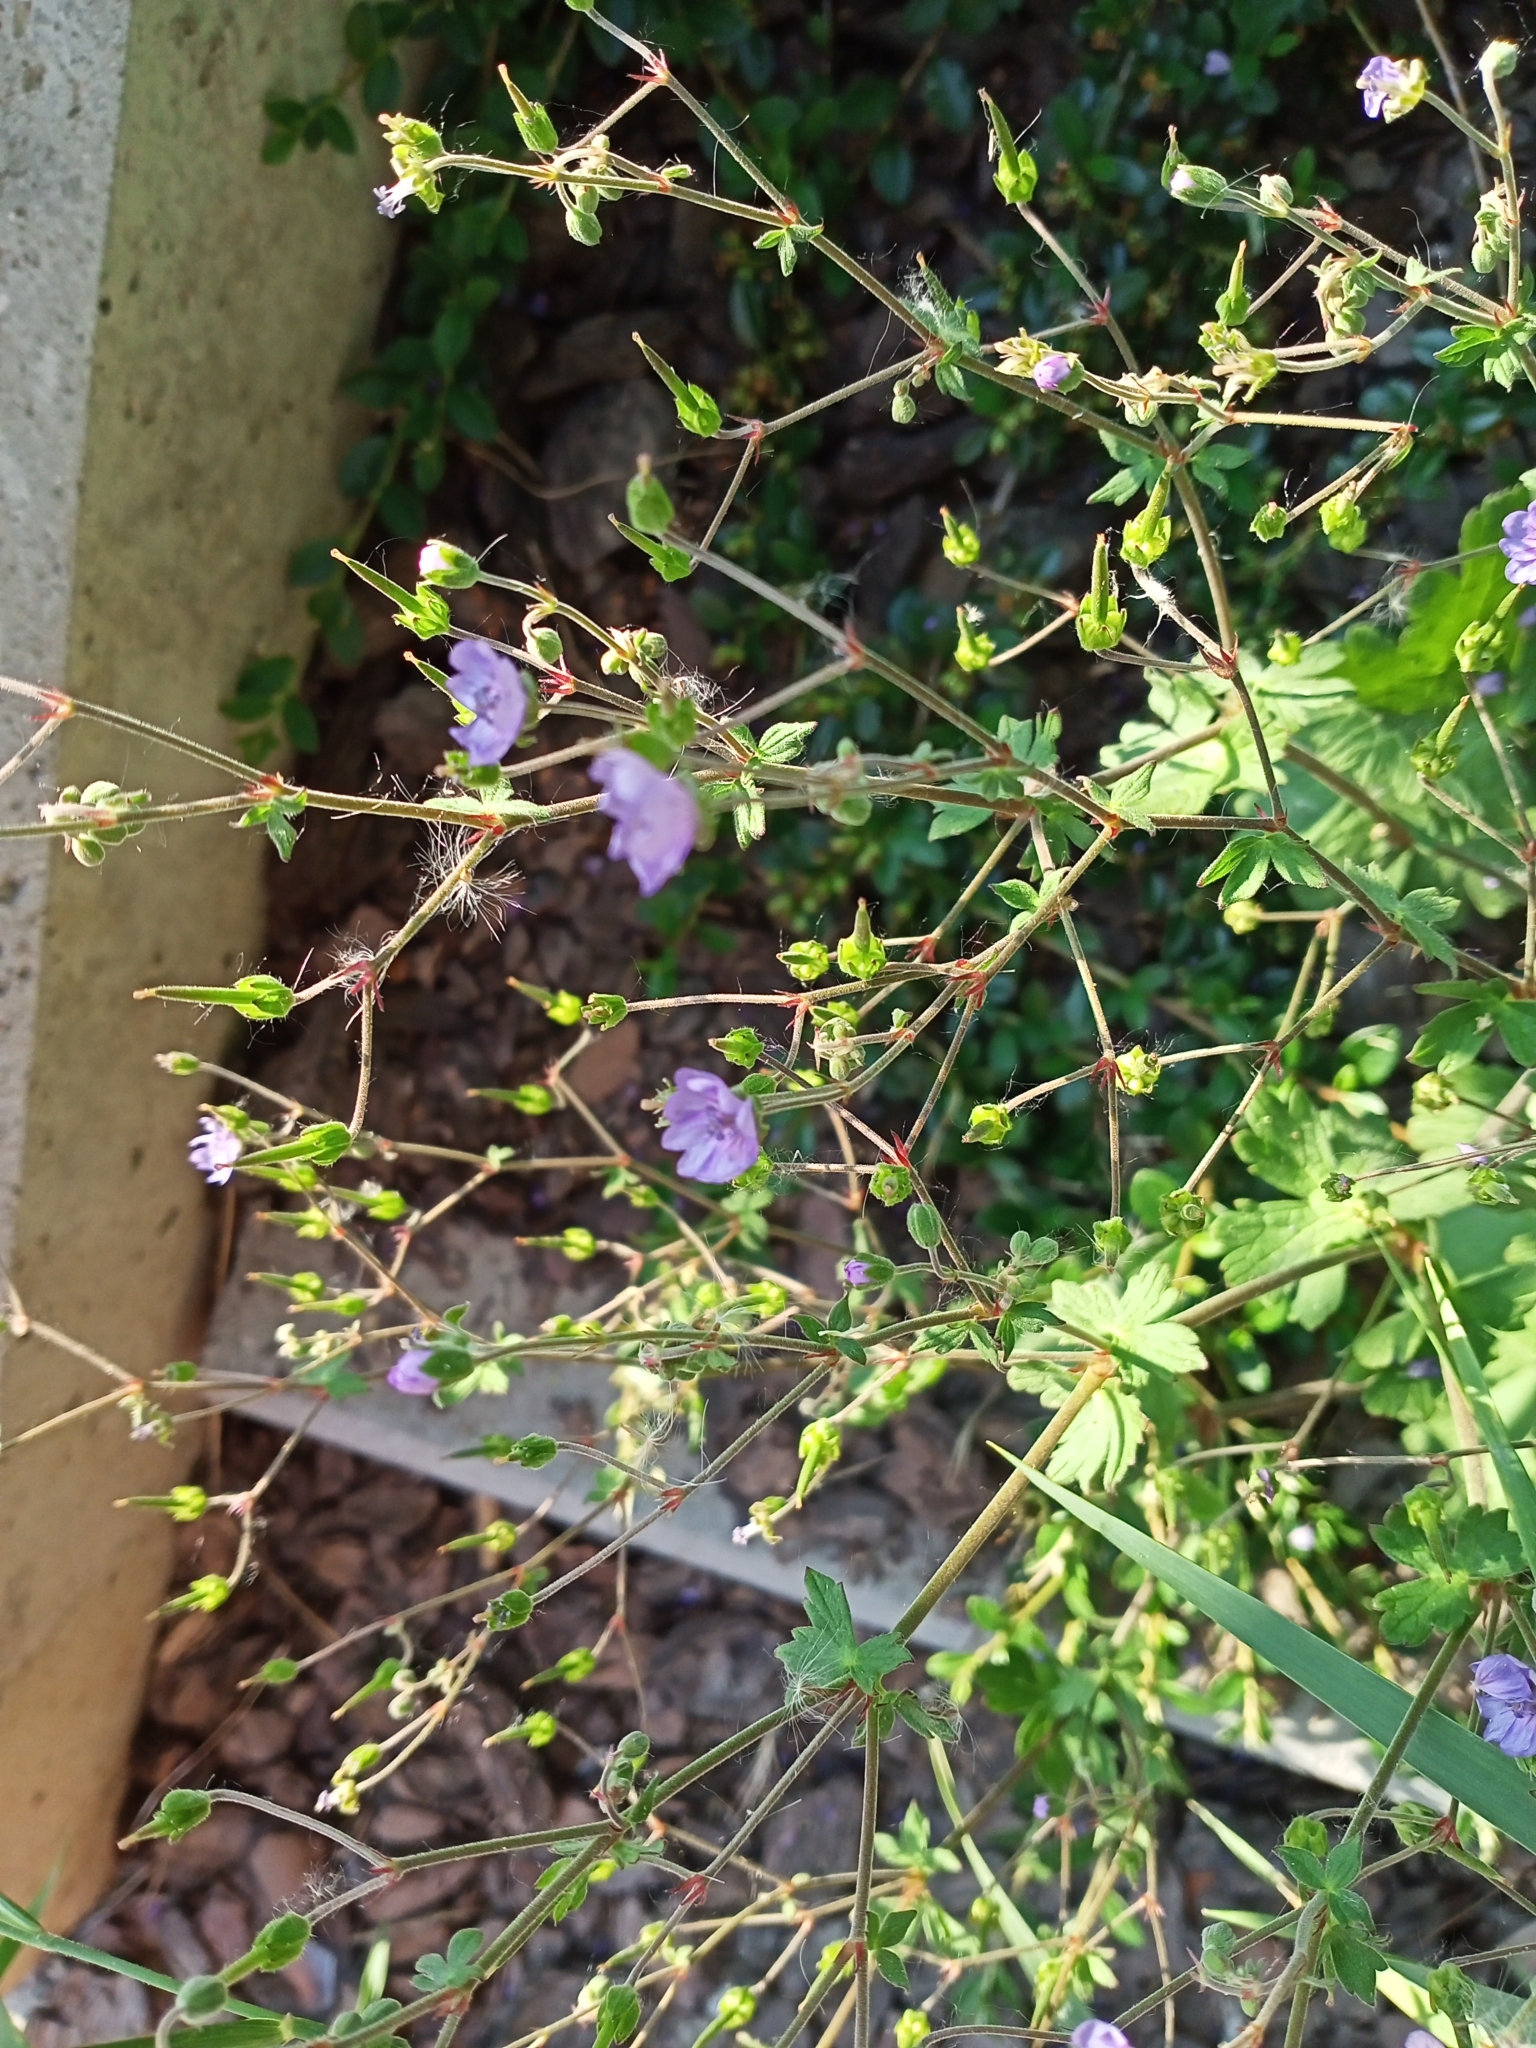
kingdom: Plantae
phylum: Tracheophyta
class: Magnoliopsida
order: Geraniales
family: Geraniaceae
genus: Geranium
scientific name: Geranium pyrenaicum
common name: Hedgerow crane's-bill
